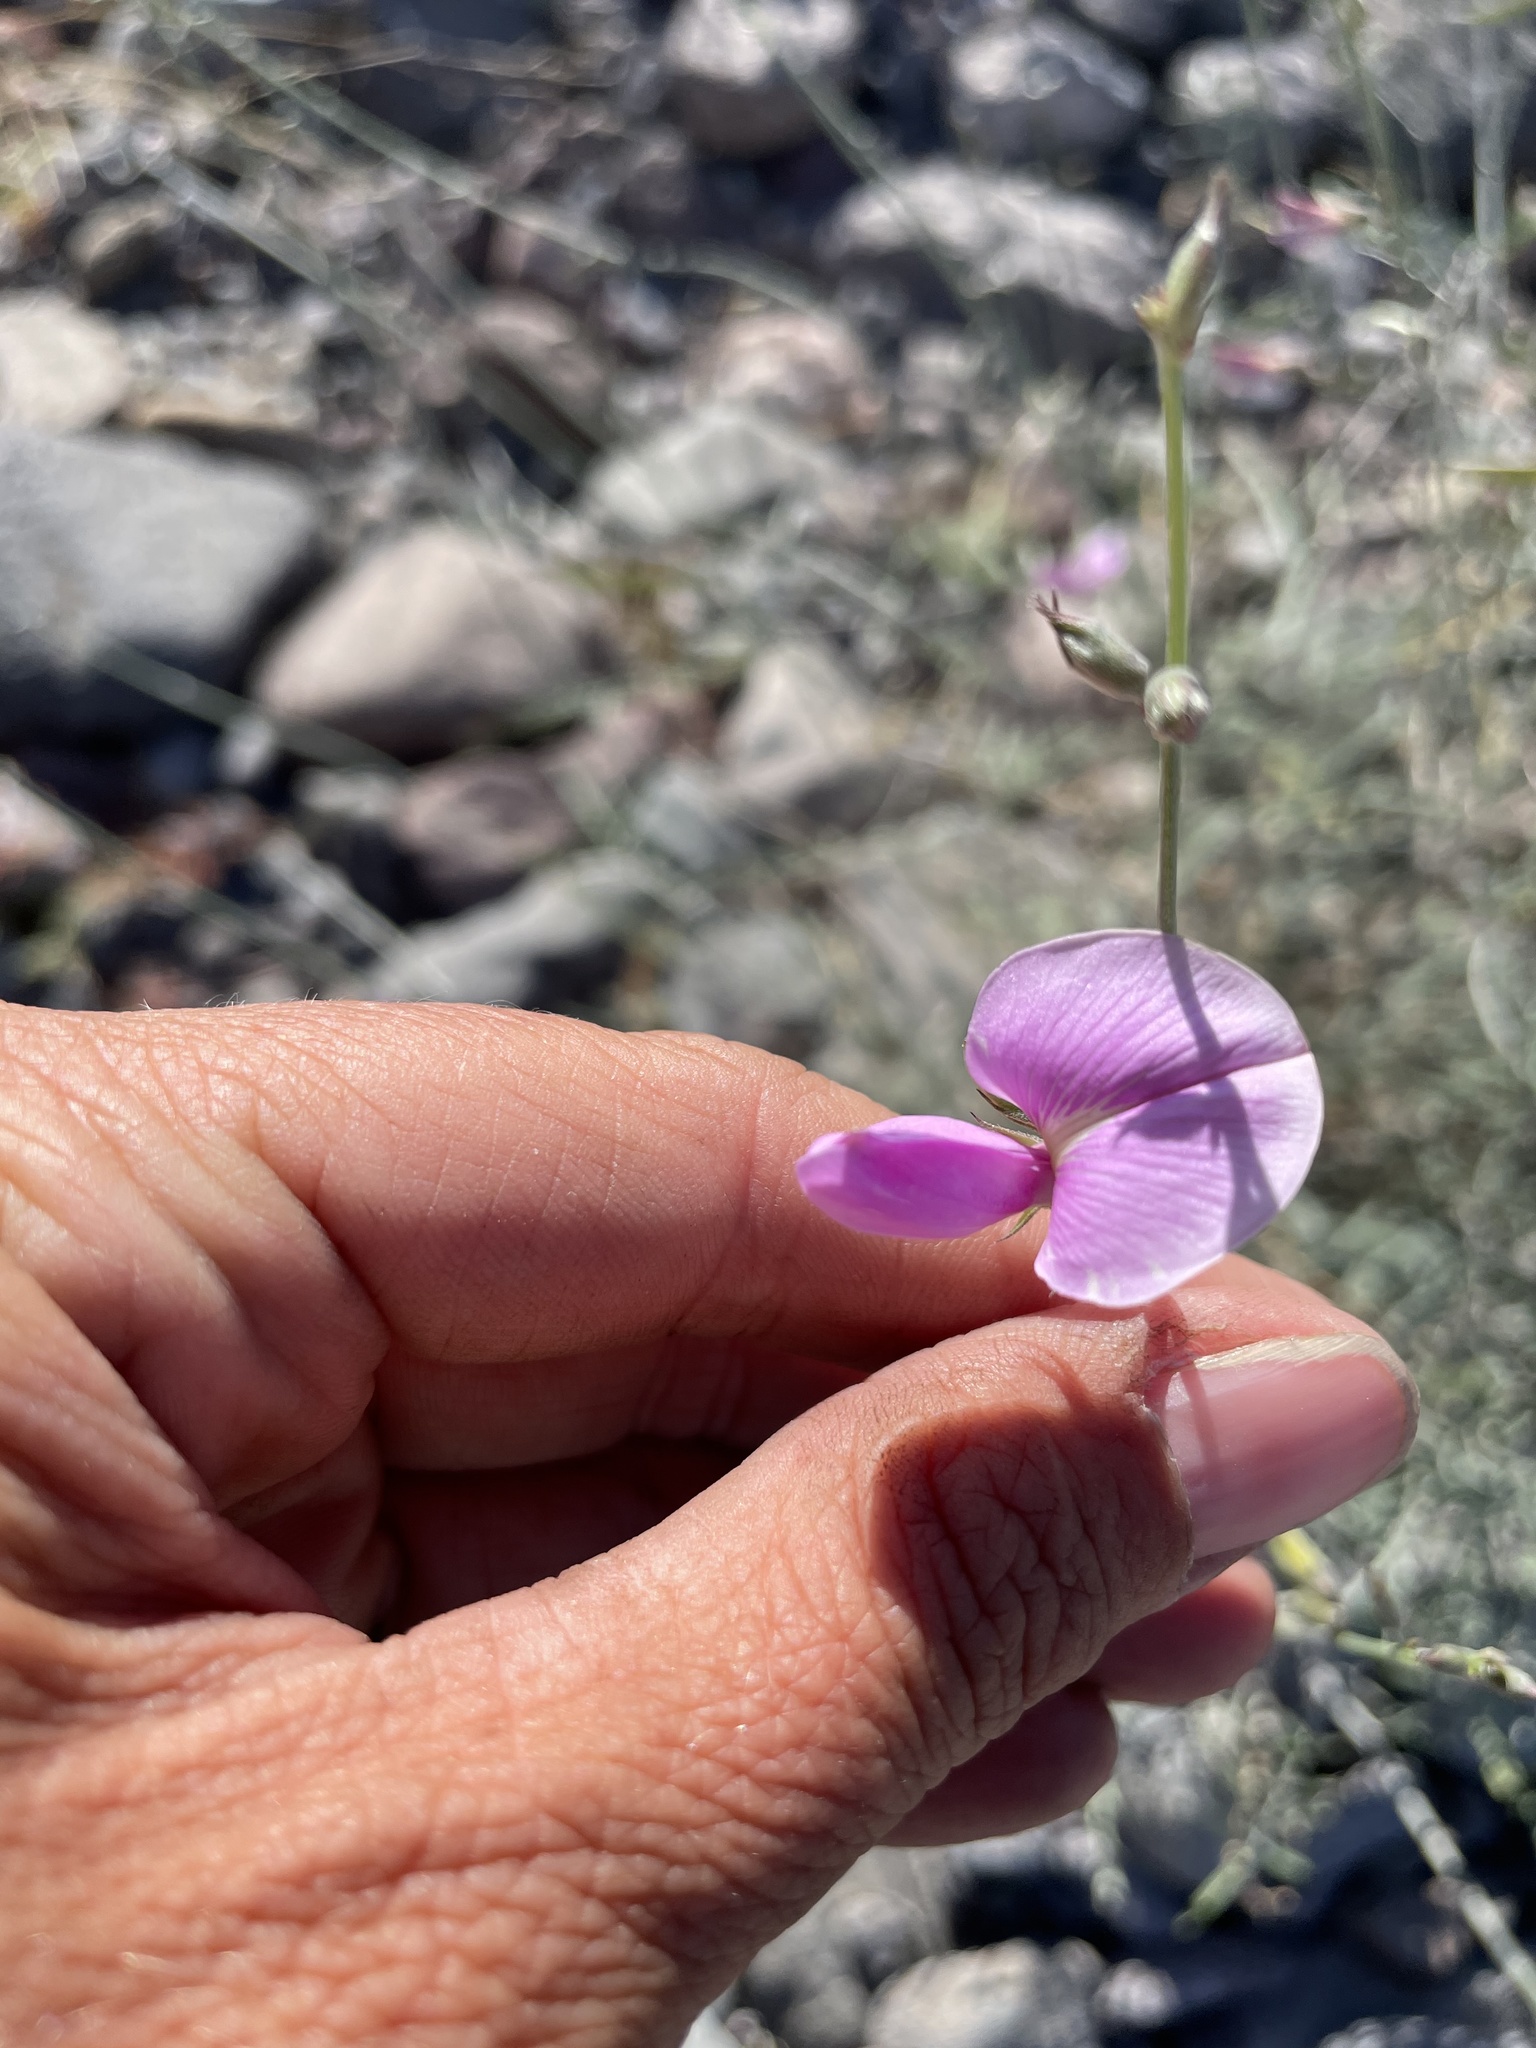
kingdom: Plantae
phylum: Tracheophyta
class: Magnoliopsida
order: Fabales
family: Fabaceae
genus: Tephrosia
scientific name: Tephrosia palmeri
